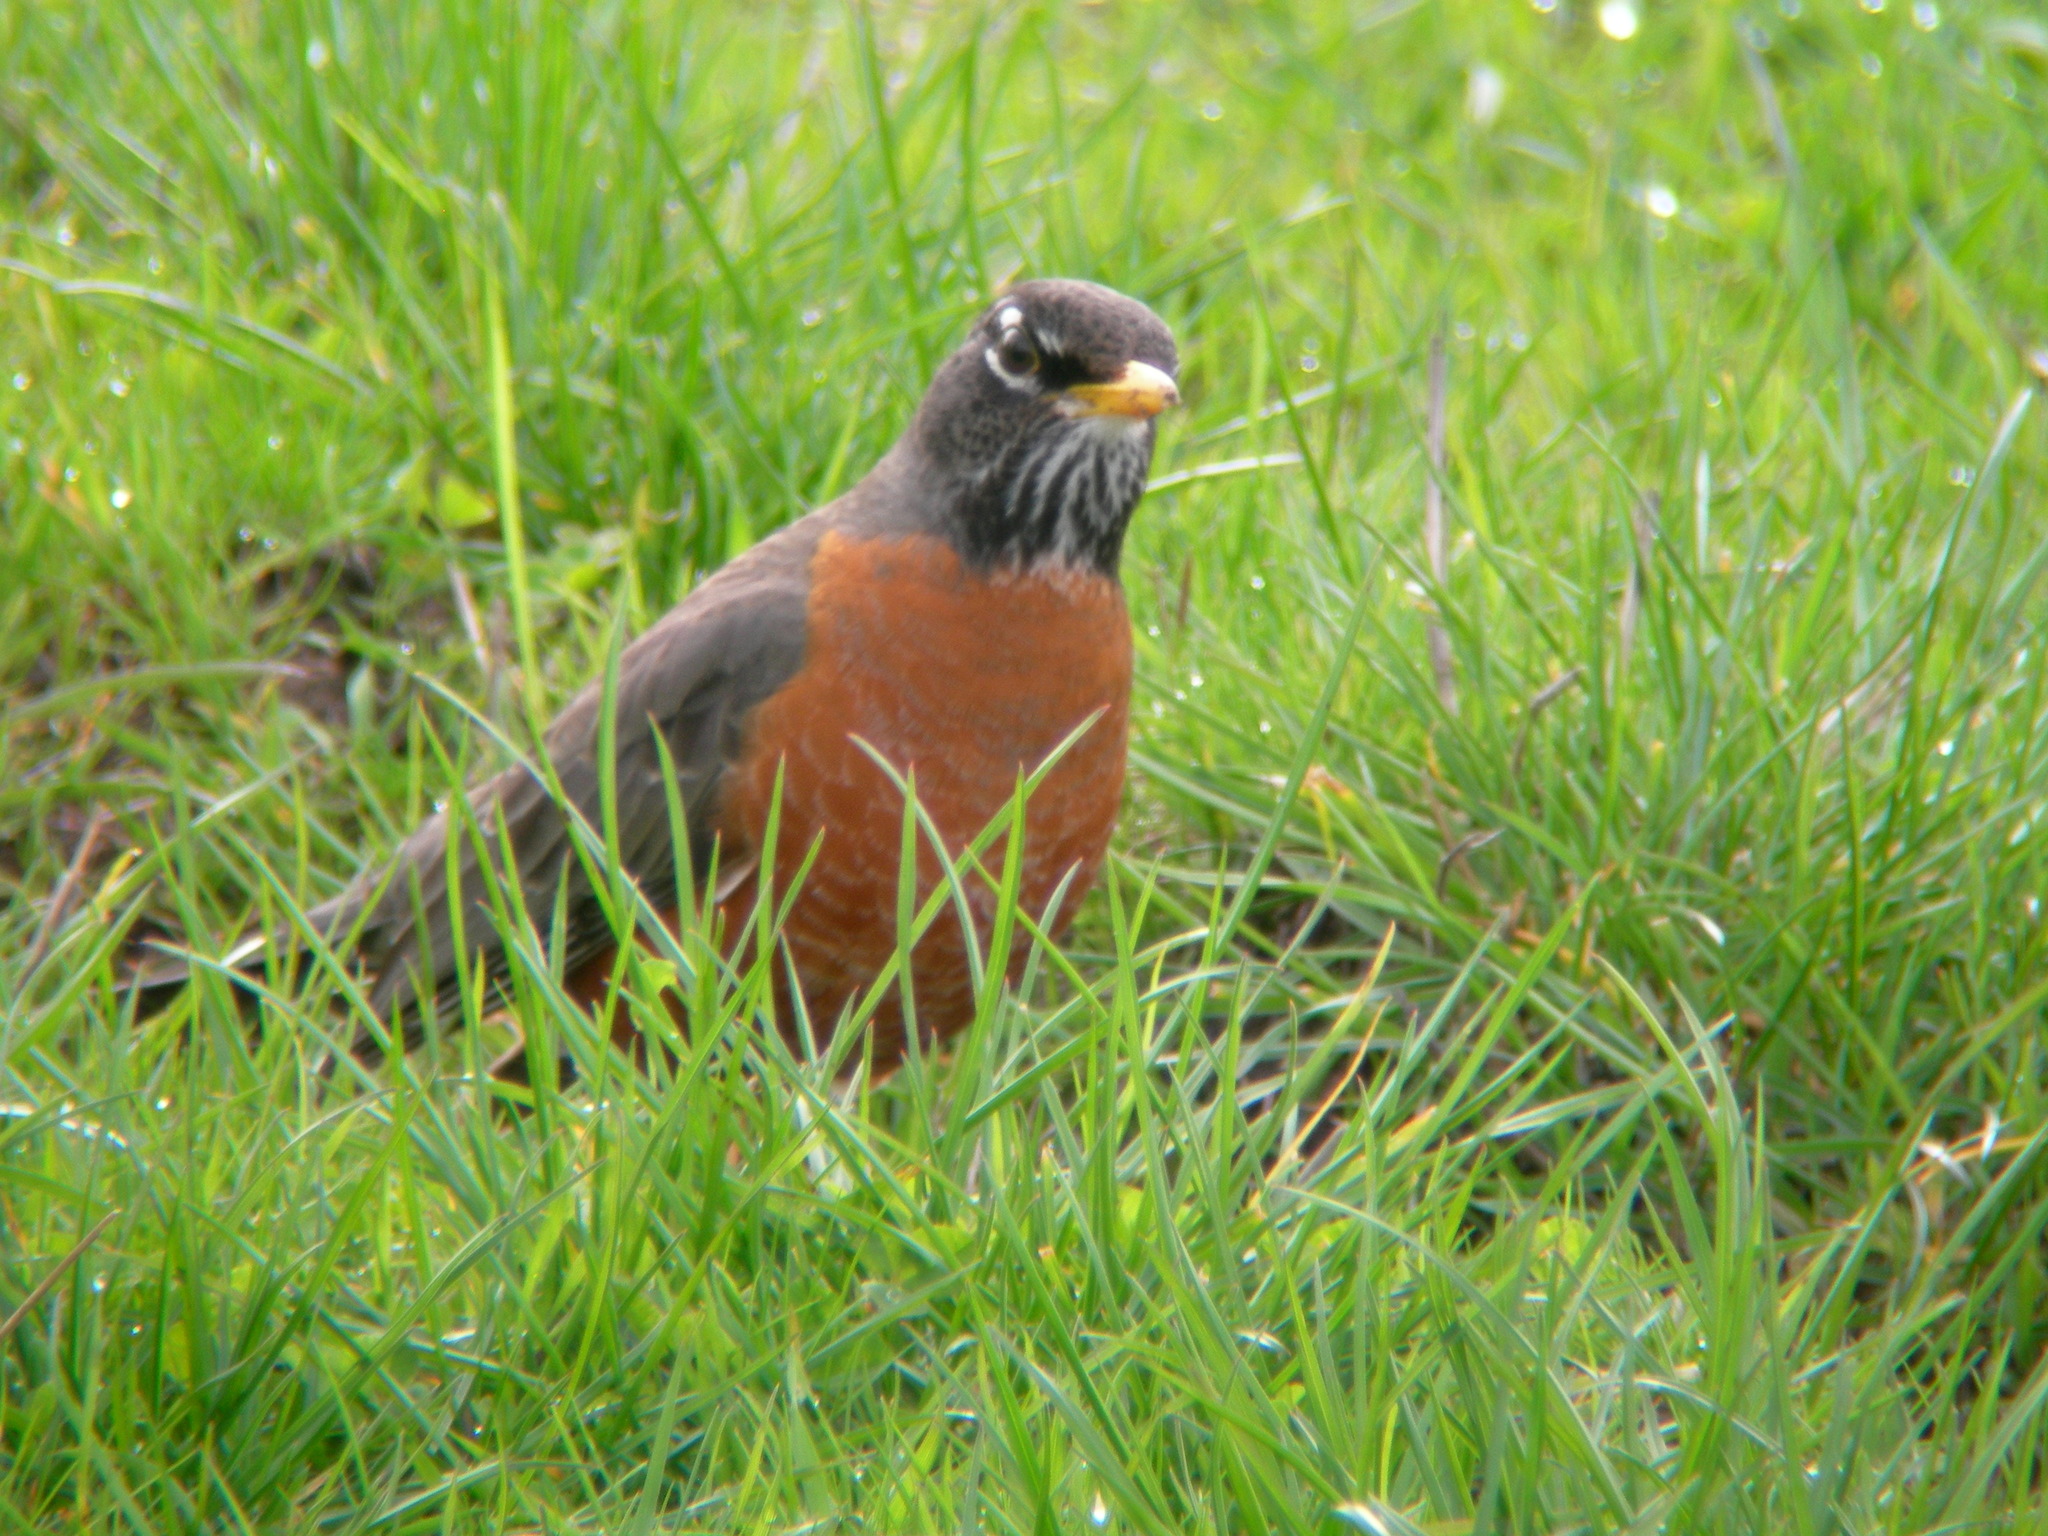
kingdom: Animalia
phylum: Chordata
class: Aves
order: Passeriformes
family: Turdidae
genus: Turdus
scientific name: Turdus migratorius
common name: American robin
